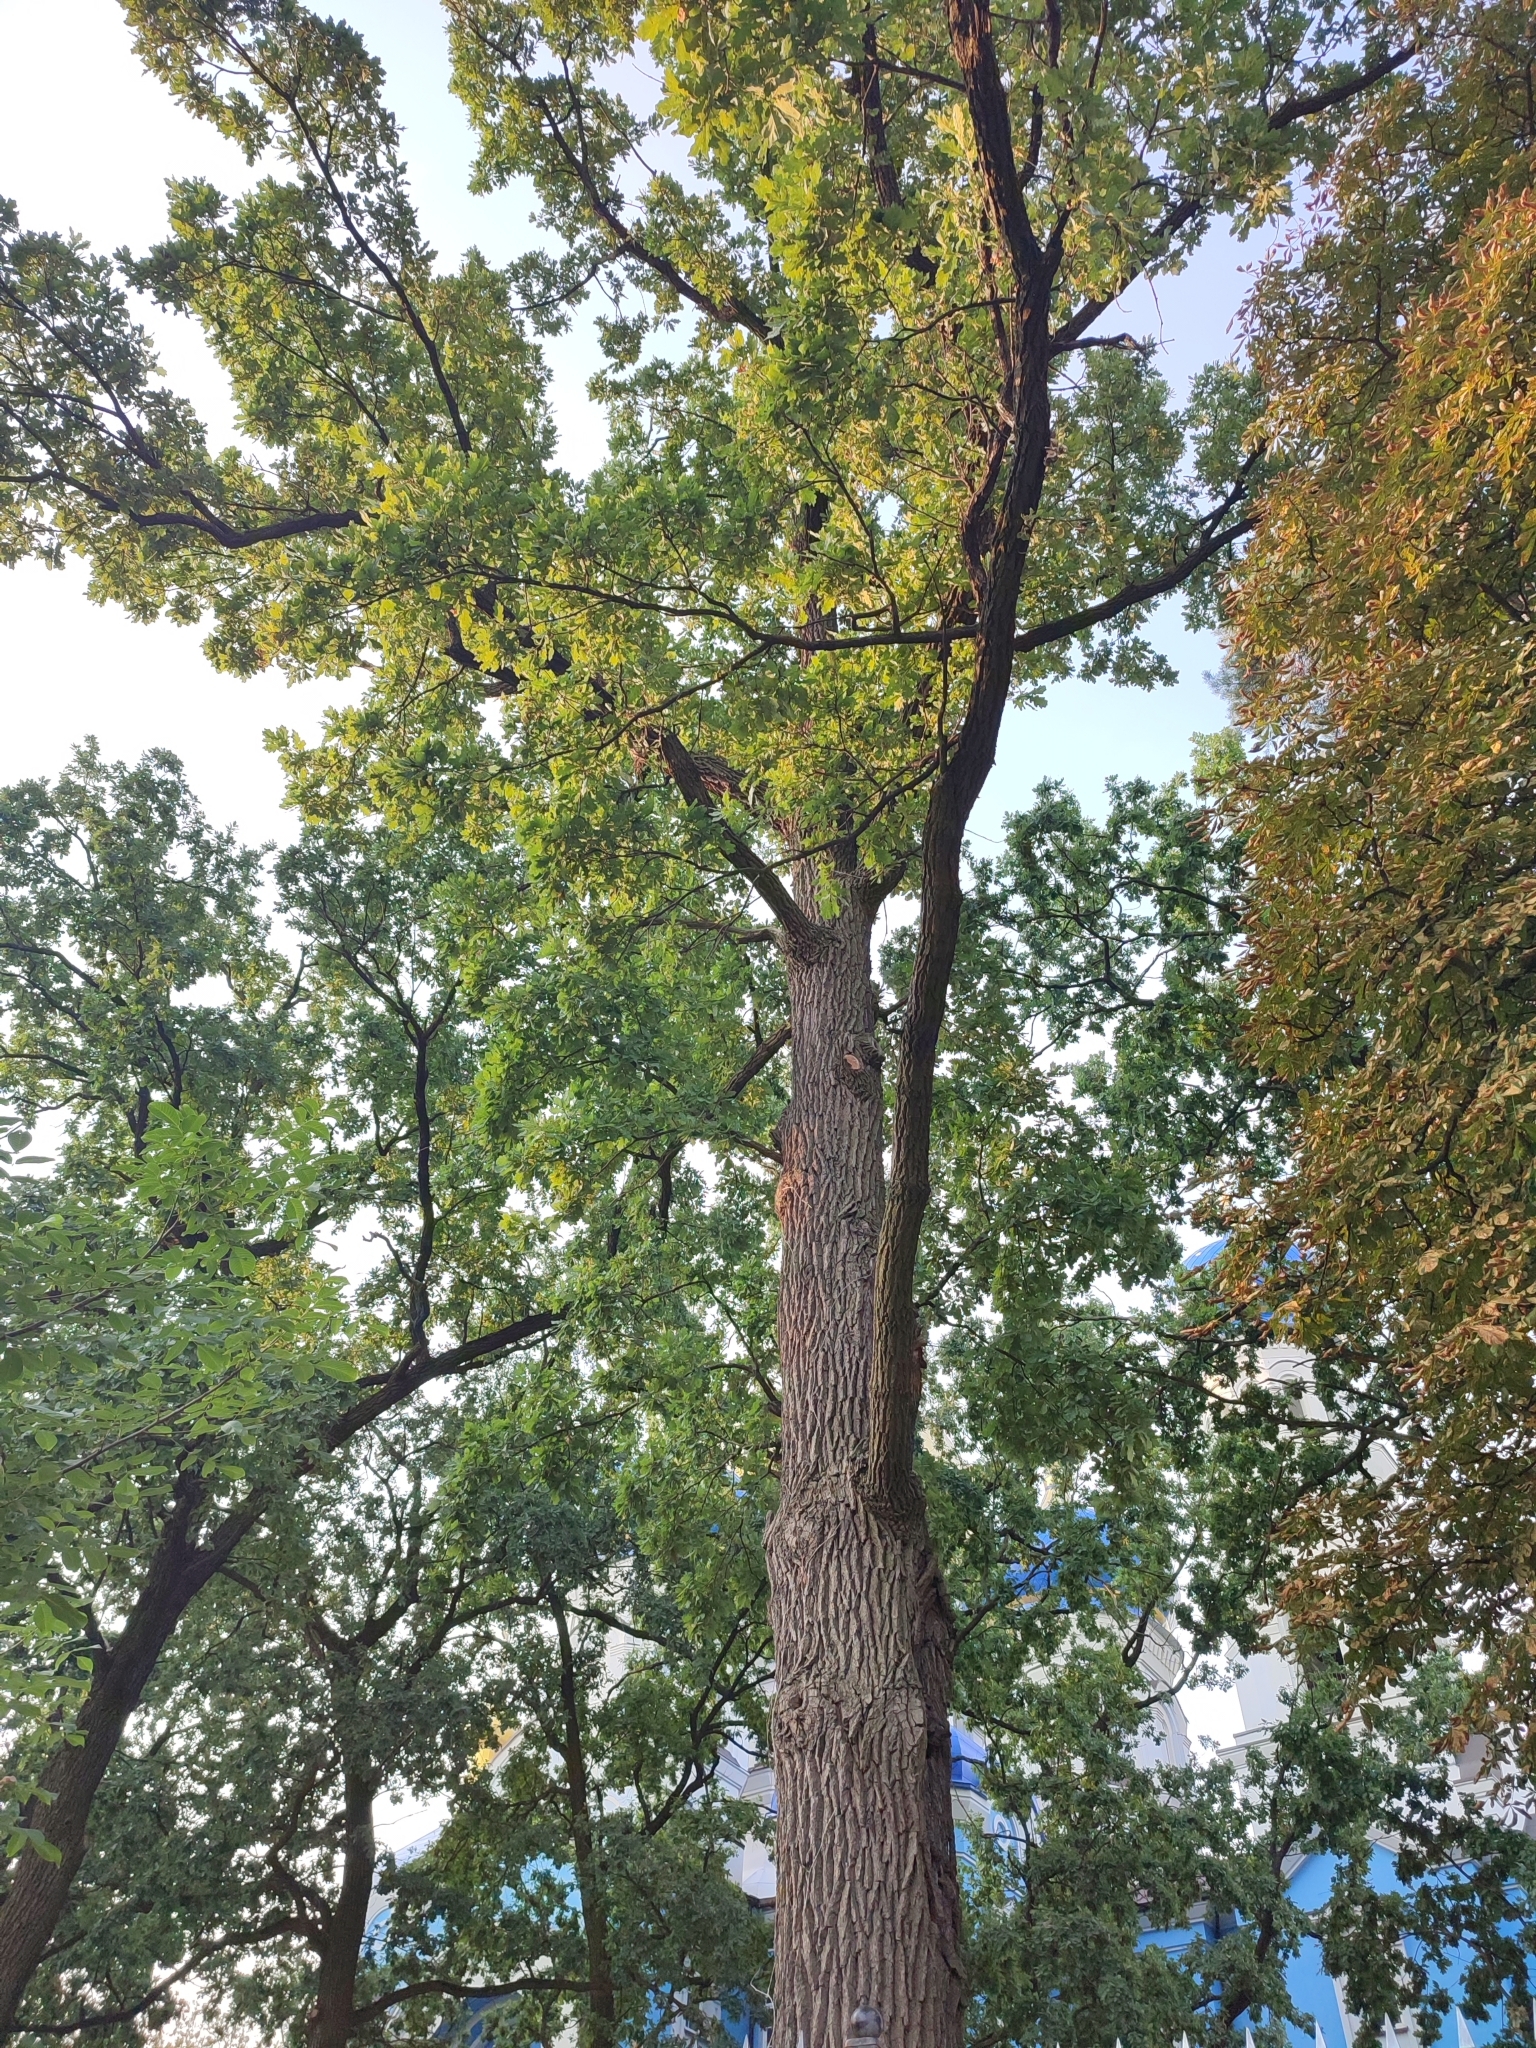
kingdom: Plantae
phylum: Tracheophyta
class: Magnoliopsida
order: Fagales
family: Fagaceae
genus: Quercus
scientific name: Quercus robur
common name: Pedunculate oak
